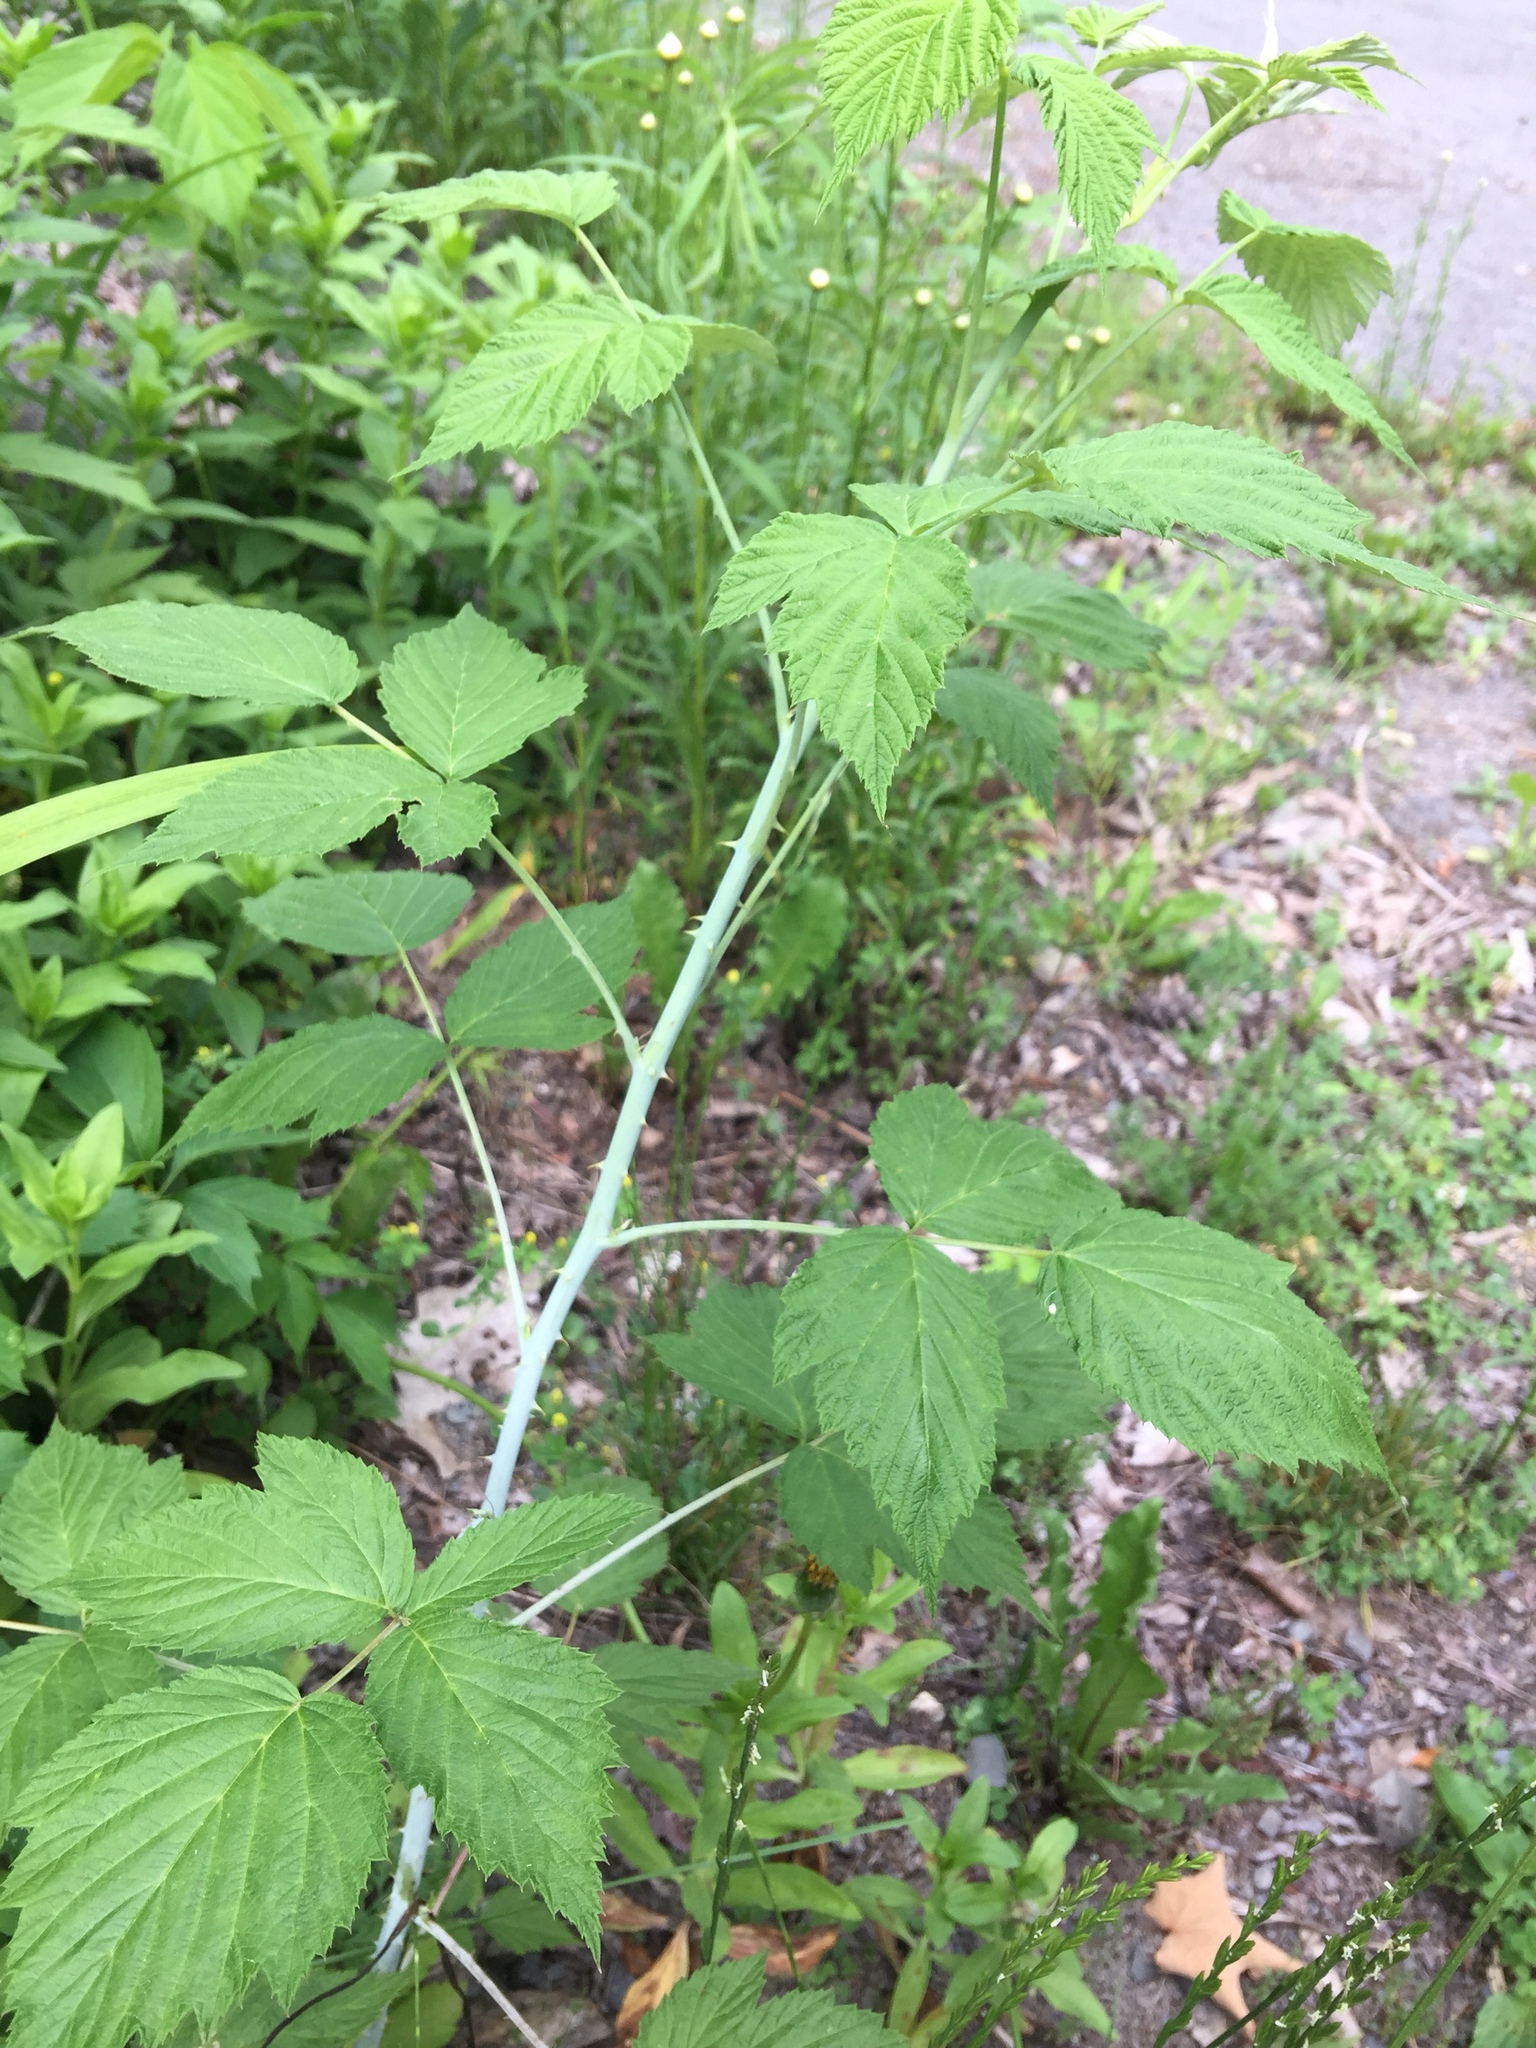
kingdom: Plantae
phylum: Tracheophyta
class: Magnoliopsida
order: Rosales
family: Rosaceae
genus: Rubus
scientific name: Rubus occidentalis
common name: Black raspberry
